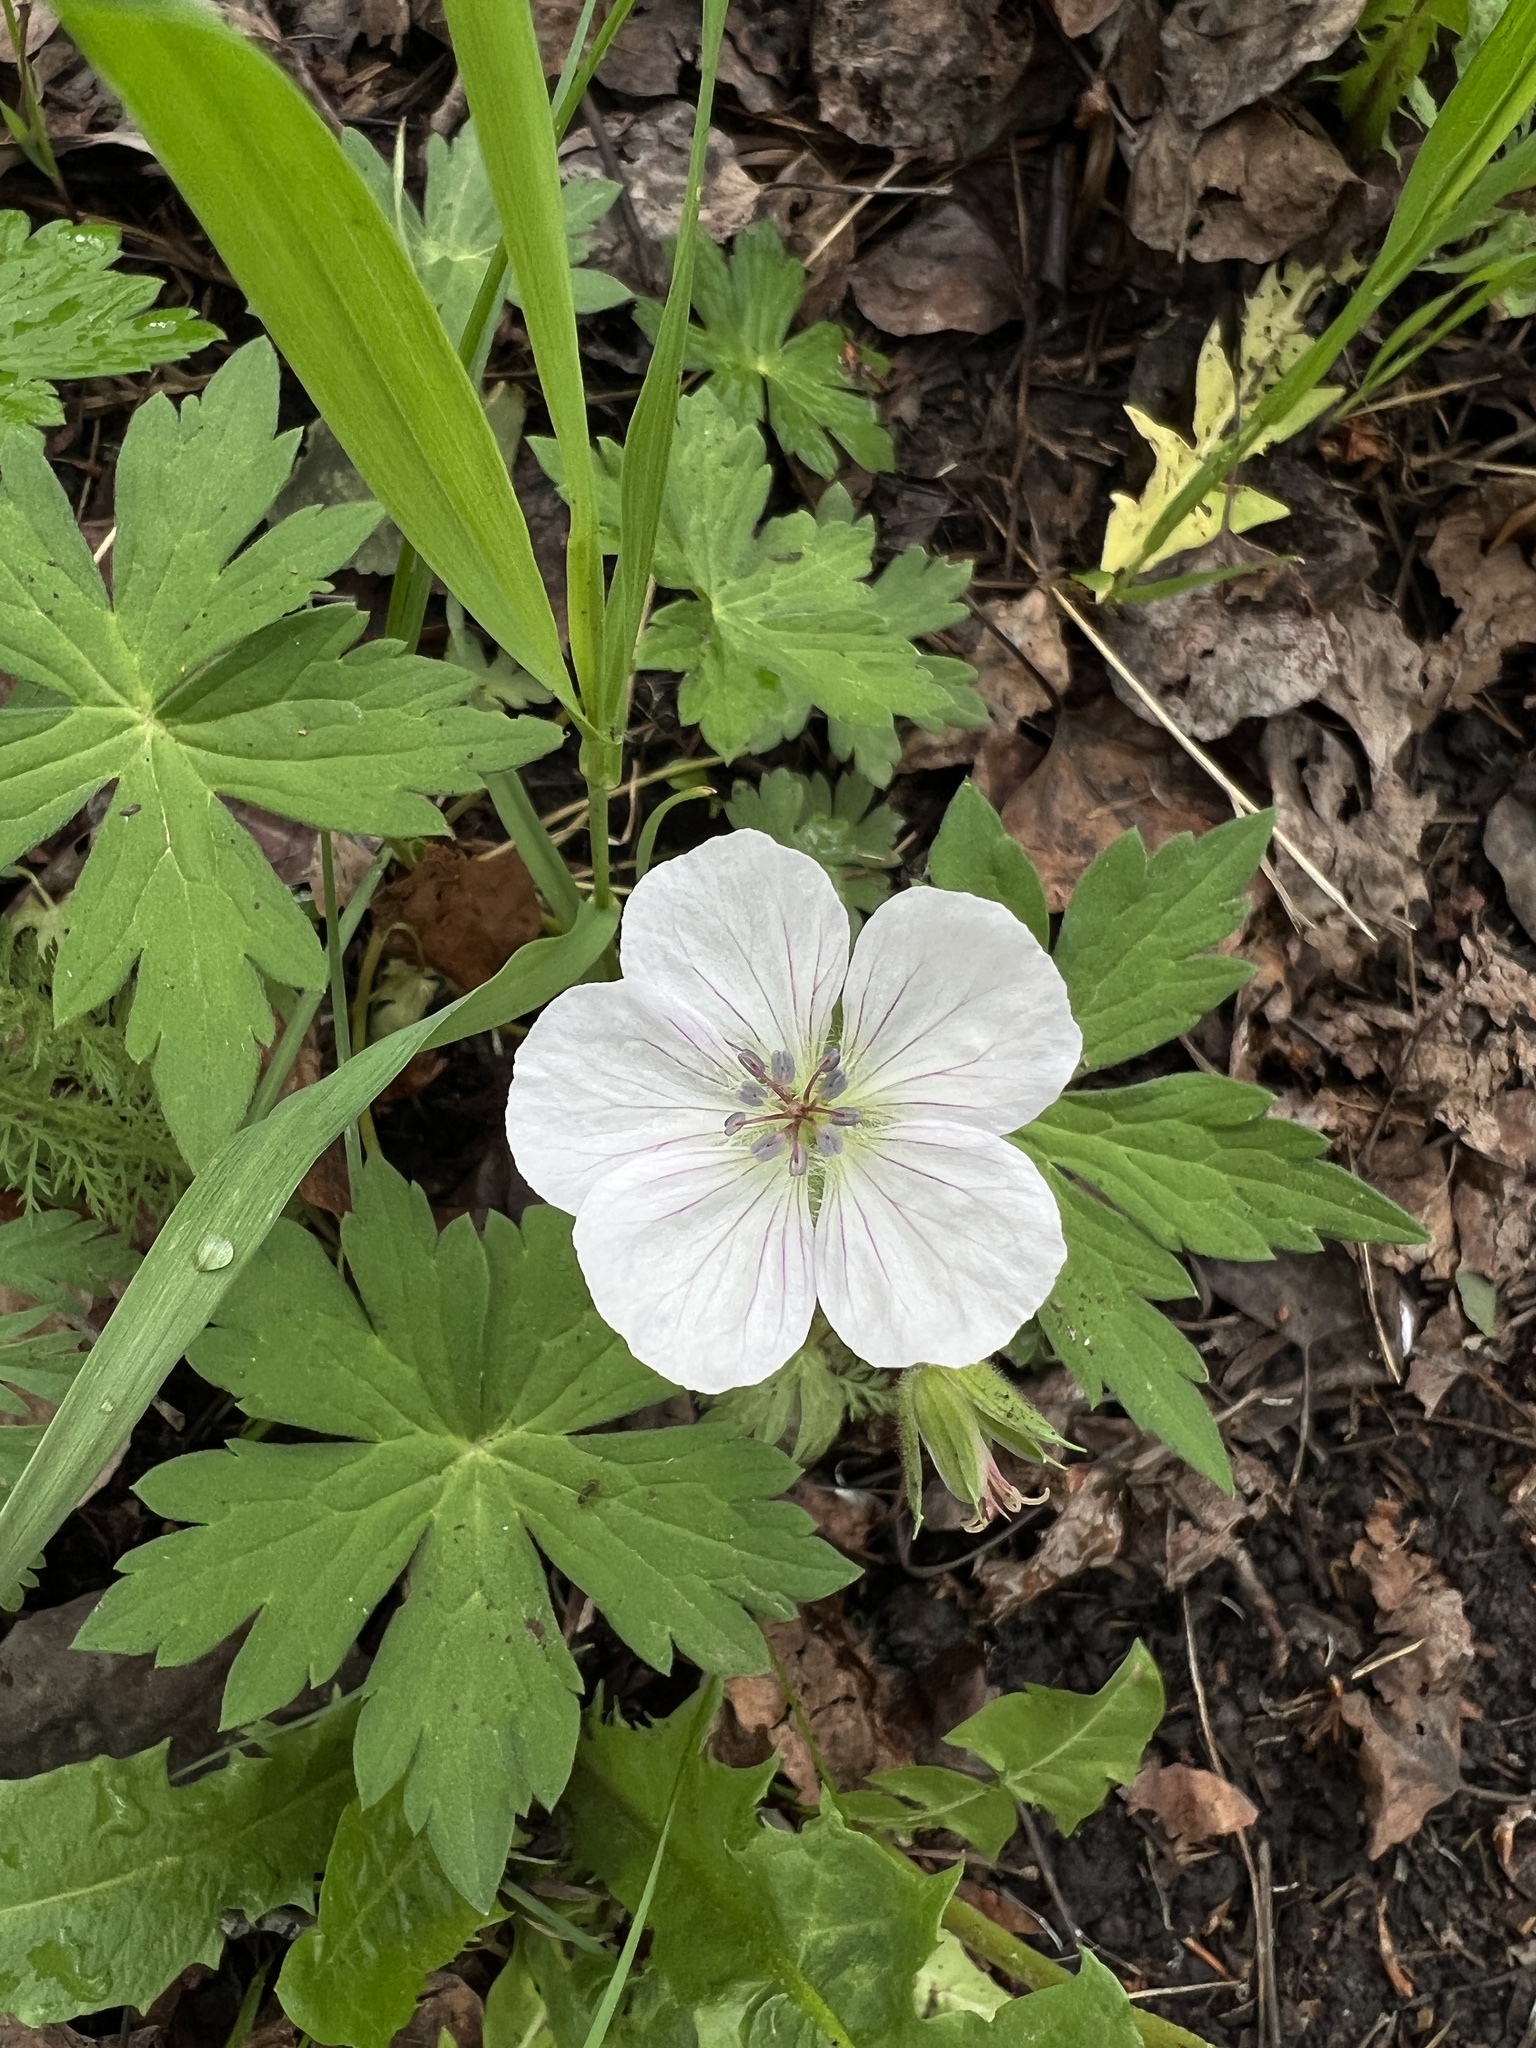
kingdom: Plantae
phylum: Tracheophyta
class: Magnoliopsida
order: Geraniales
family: Geraniaceae
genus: Geranium
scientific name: Geranium richardsonii
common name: Richardson's crane's-bill
